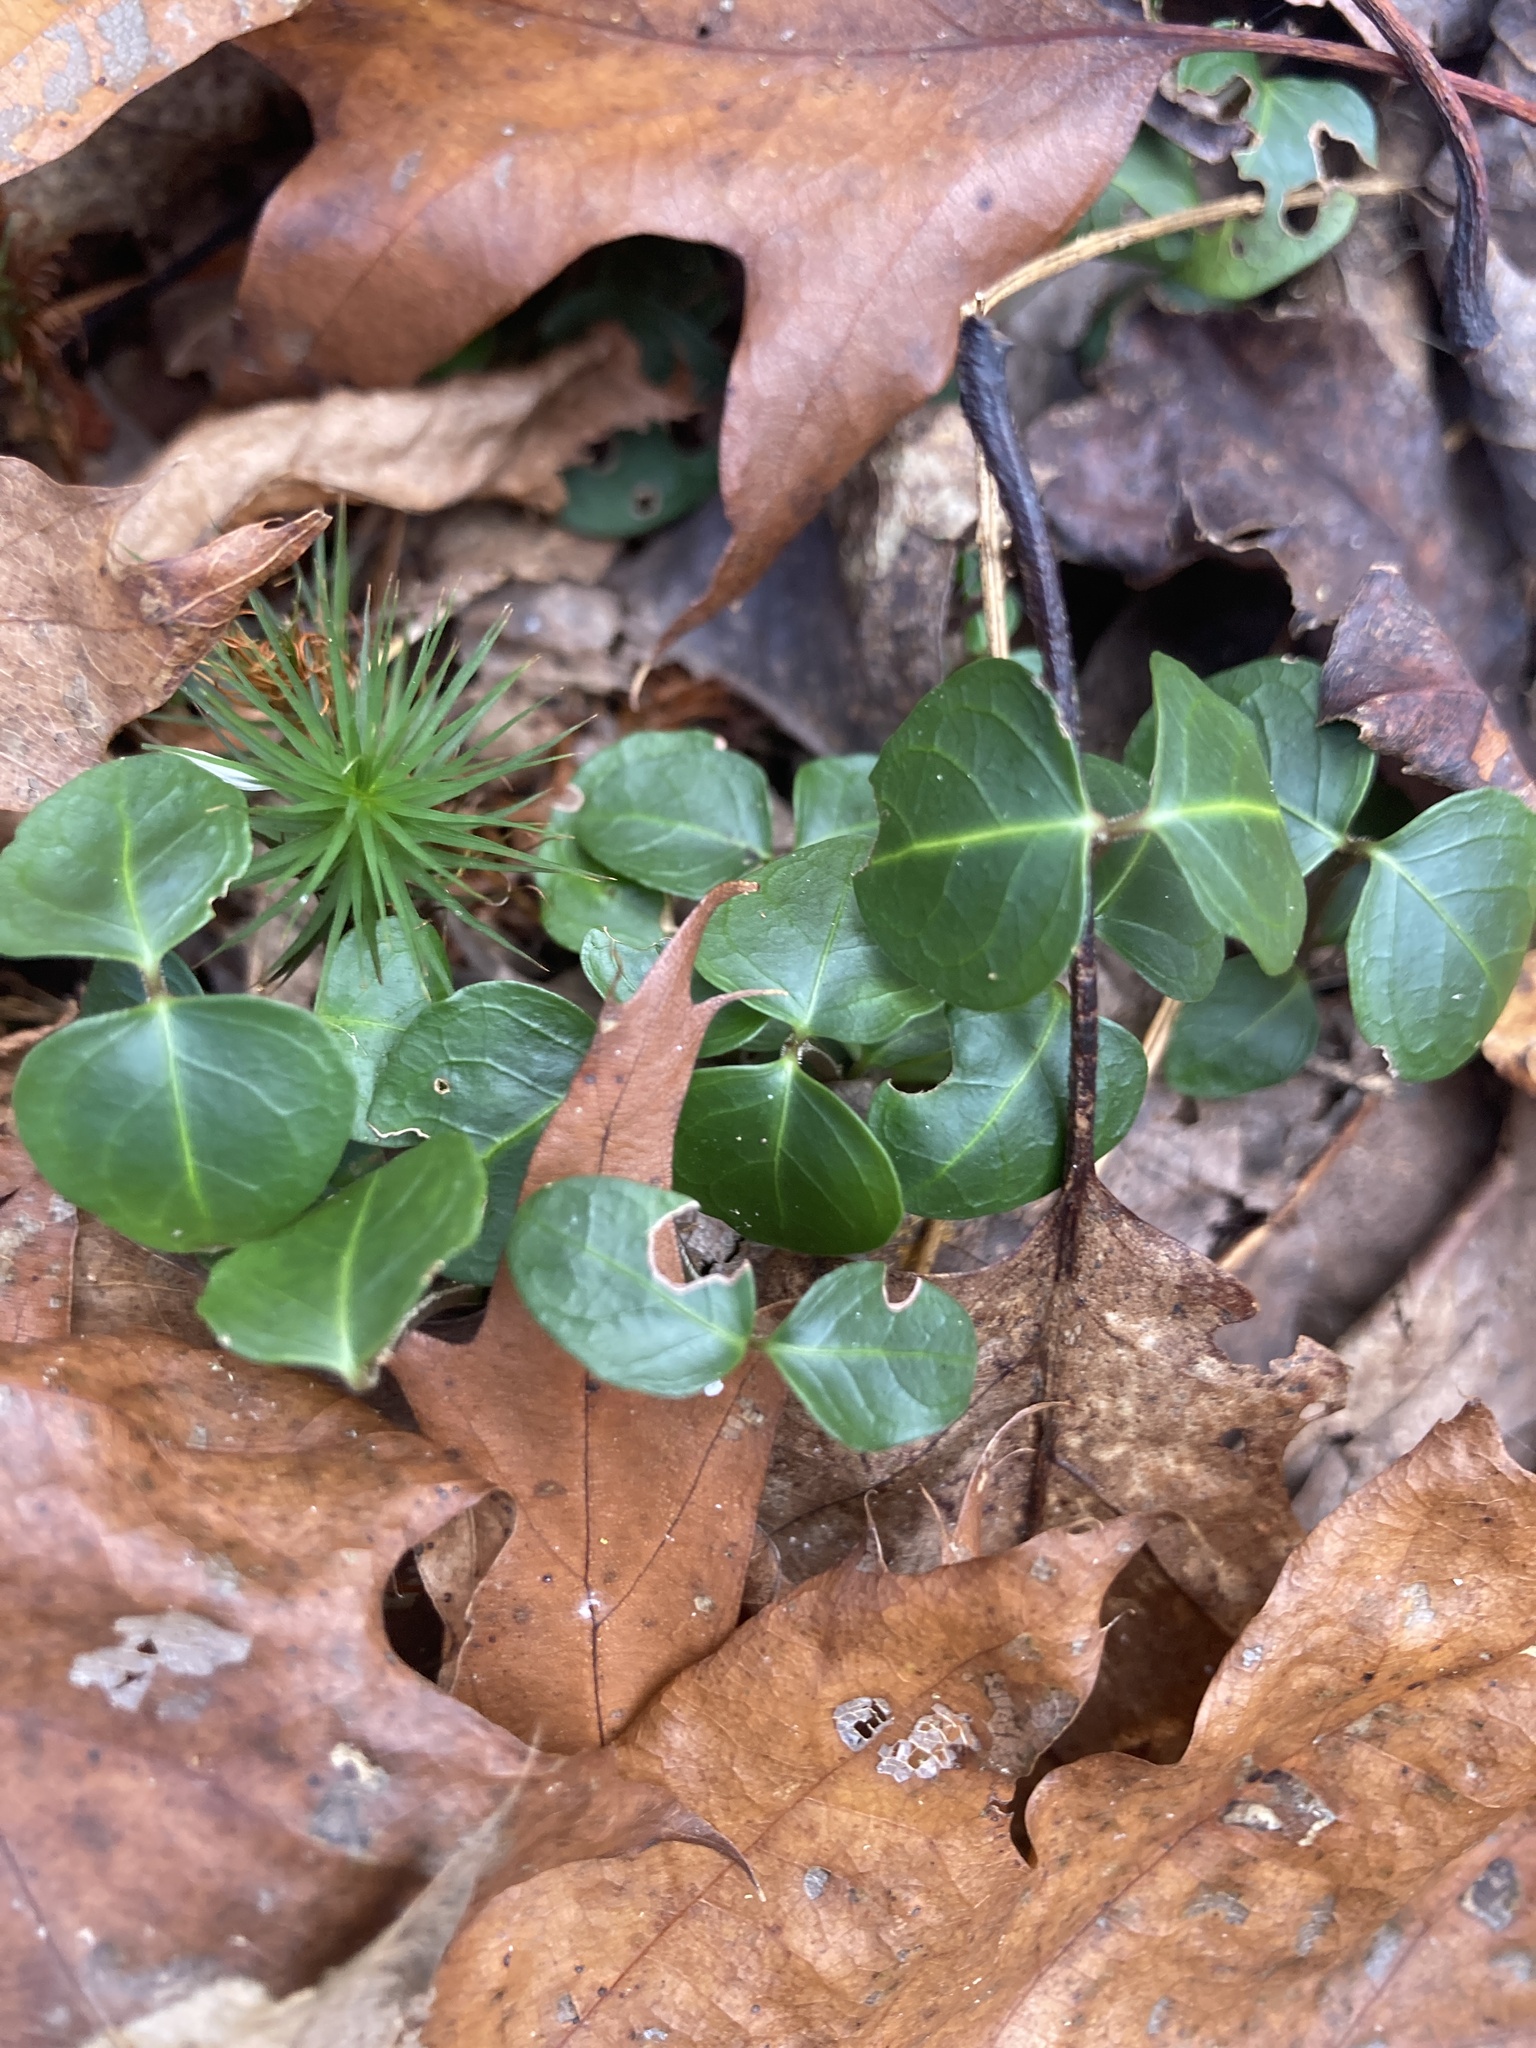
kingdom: Plantae
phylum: Tracheophyta
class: Magnoliopsida
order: Gentianales
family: Rubiaceae
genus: Mitchella
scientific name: Mitchella repens
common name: Partridge-berry
